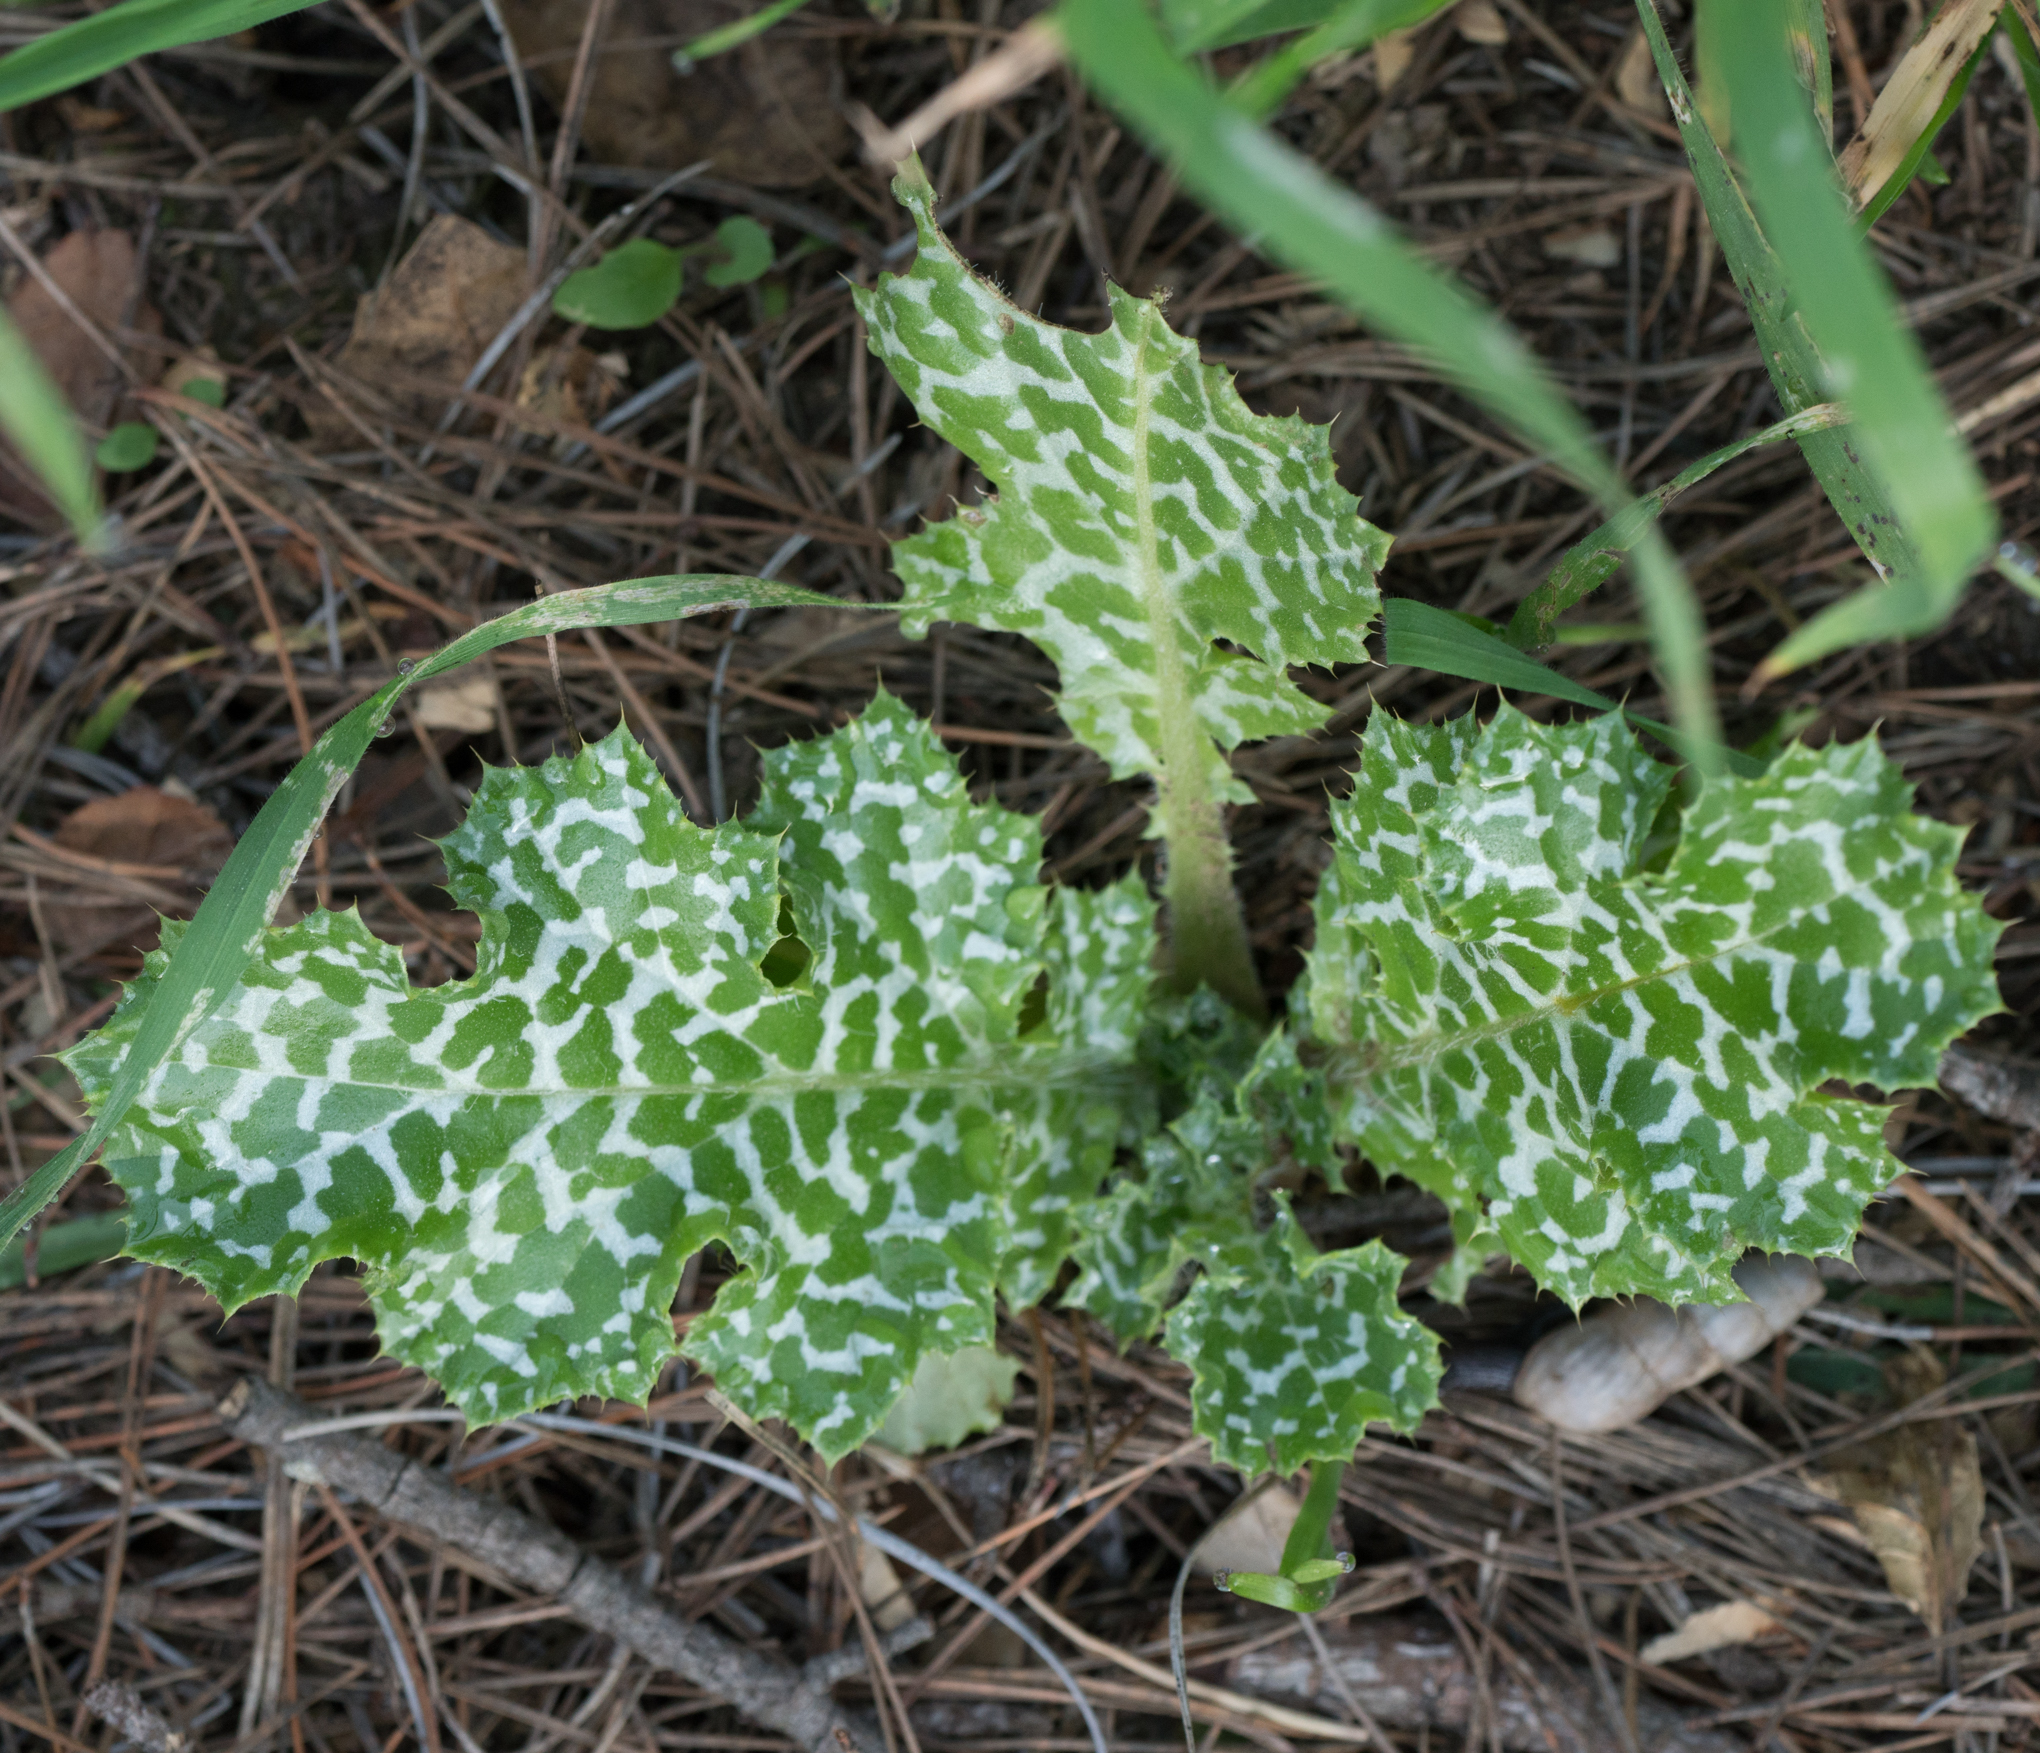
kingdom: Plantae
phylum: Tracheophyta
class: Magnoliopsida
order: Asterales
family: Asteraceae
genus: Silybum
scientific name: Silybum marianum
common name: Milk thistle
